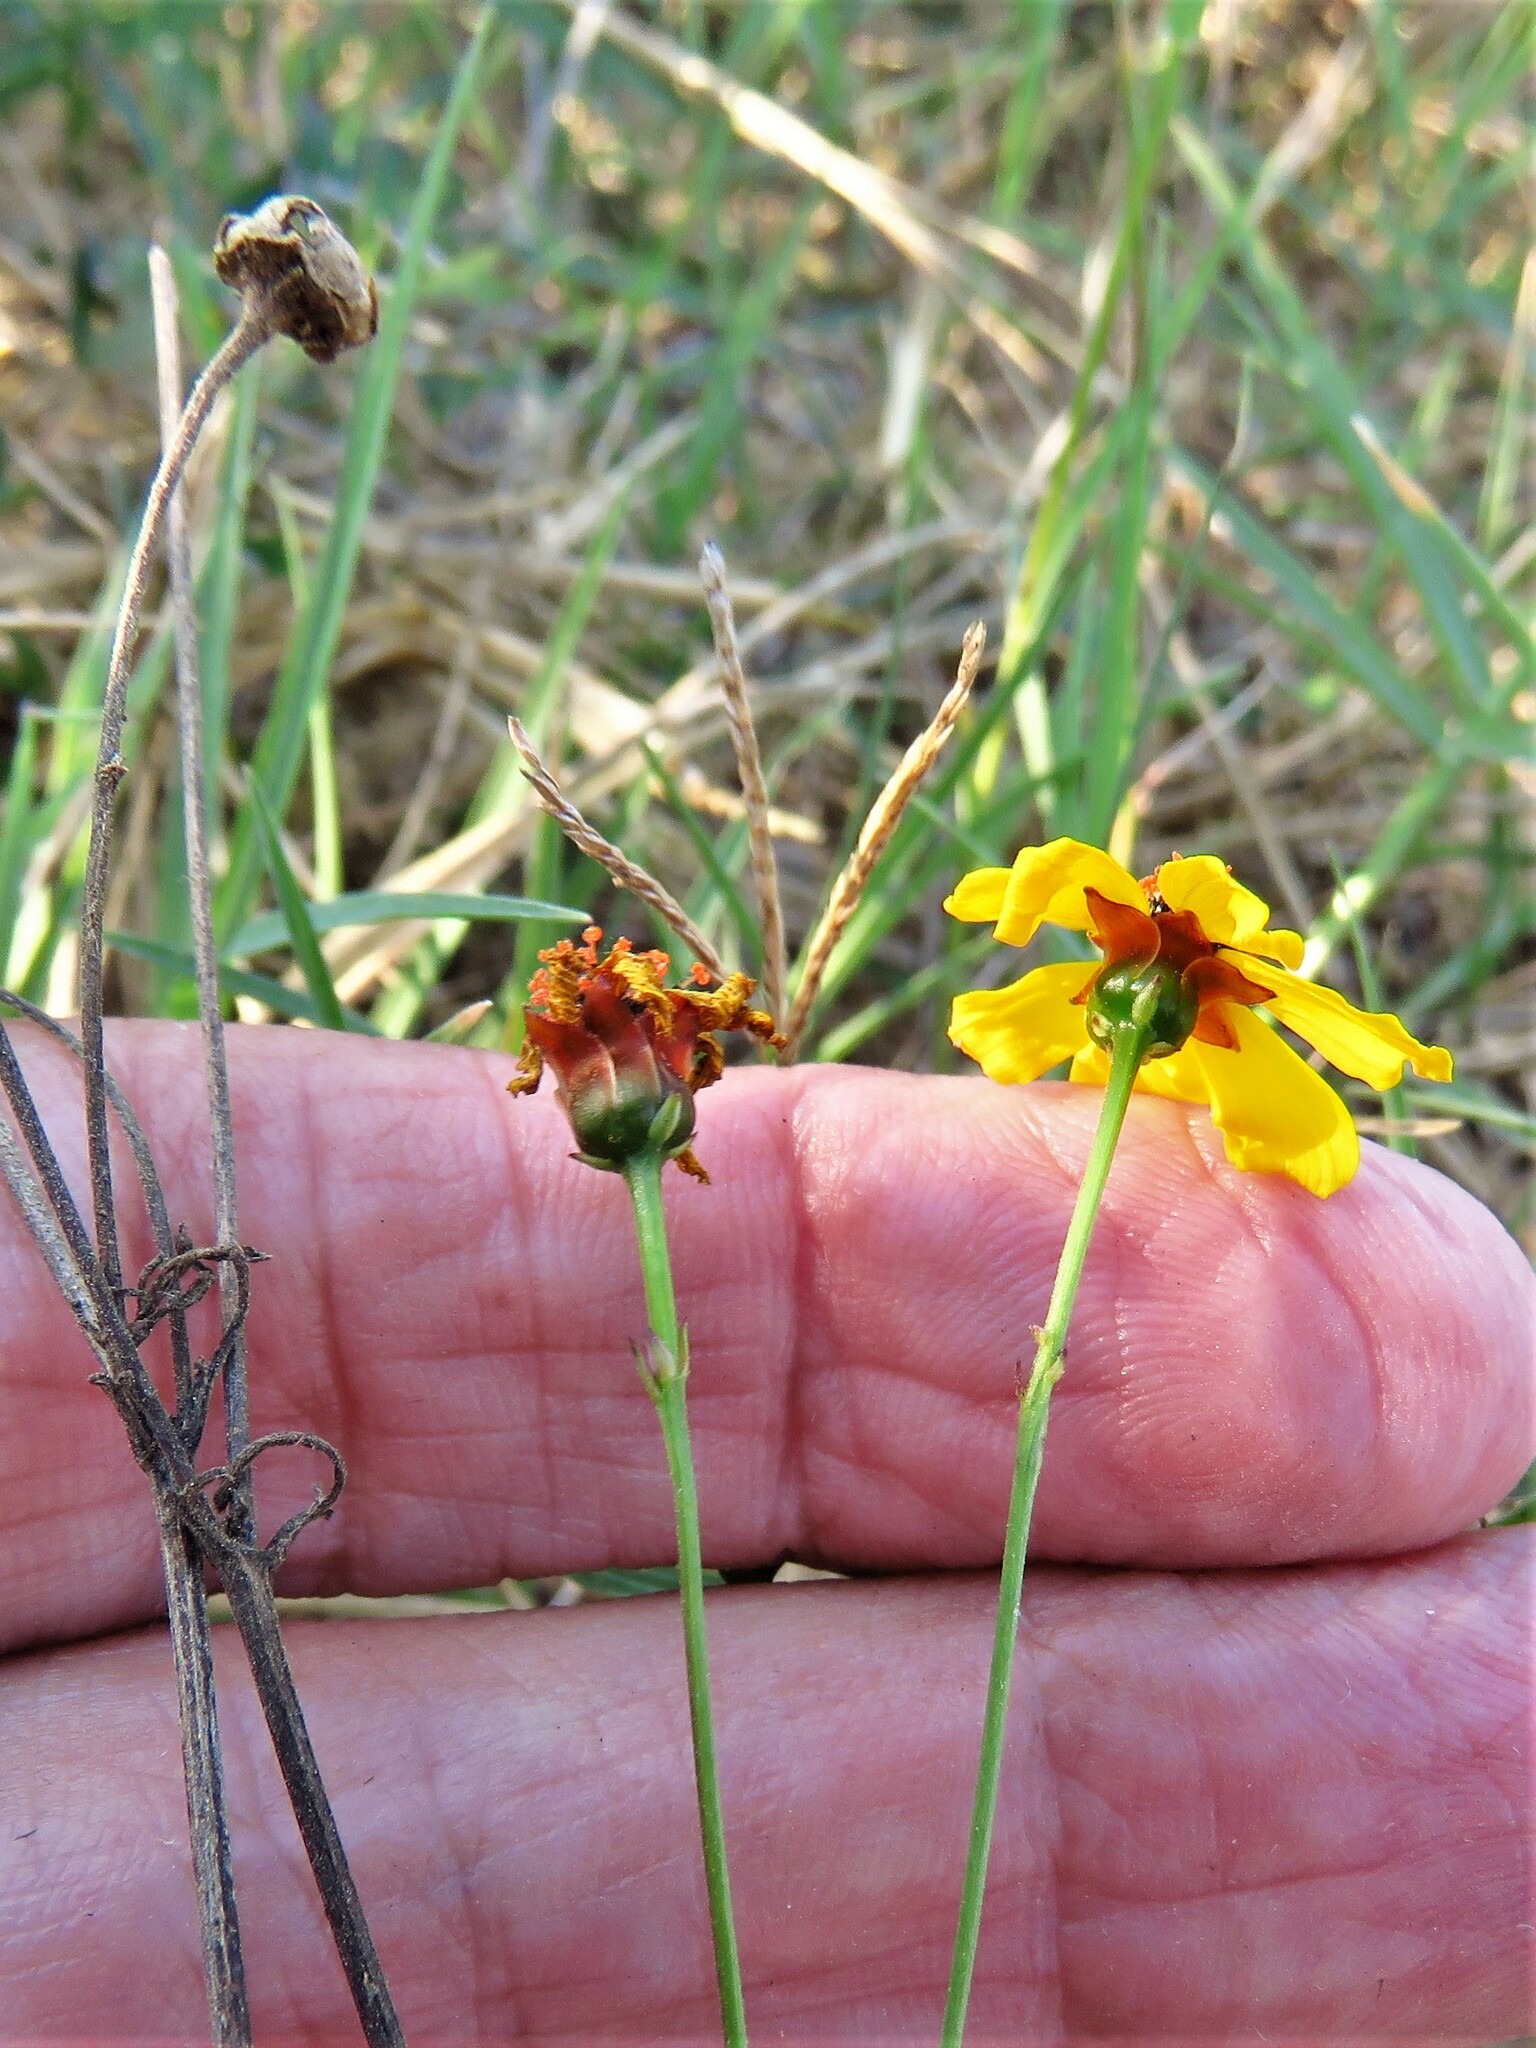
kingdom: Plantae
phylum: Tracheophyta
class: Magnoliopsida
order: Asterales
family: Asteraceae
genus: Thelesperma
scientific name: Thelesperma filifolium
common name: Stiff greenthread
